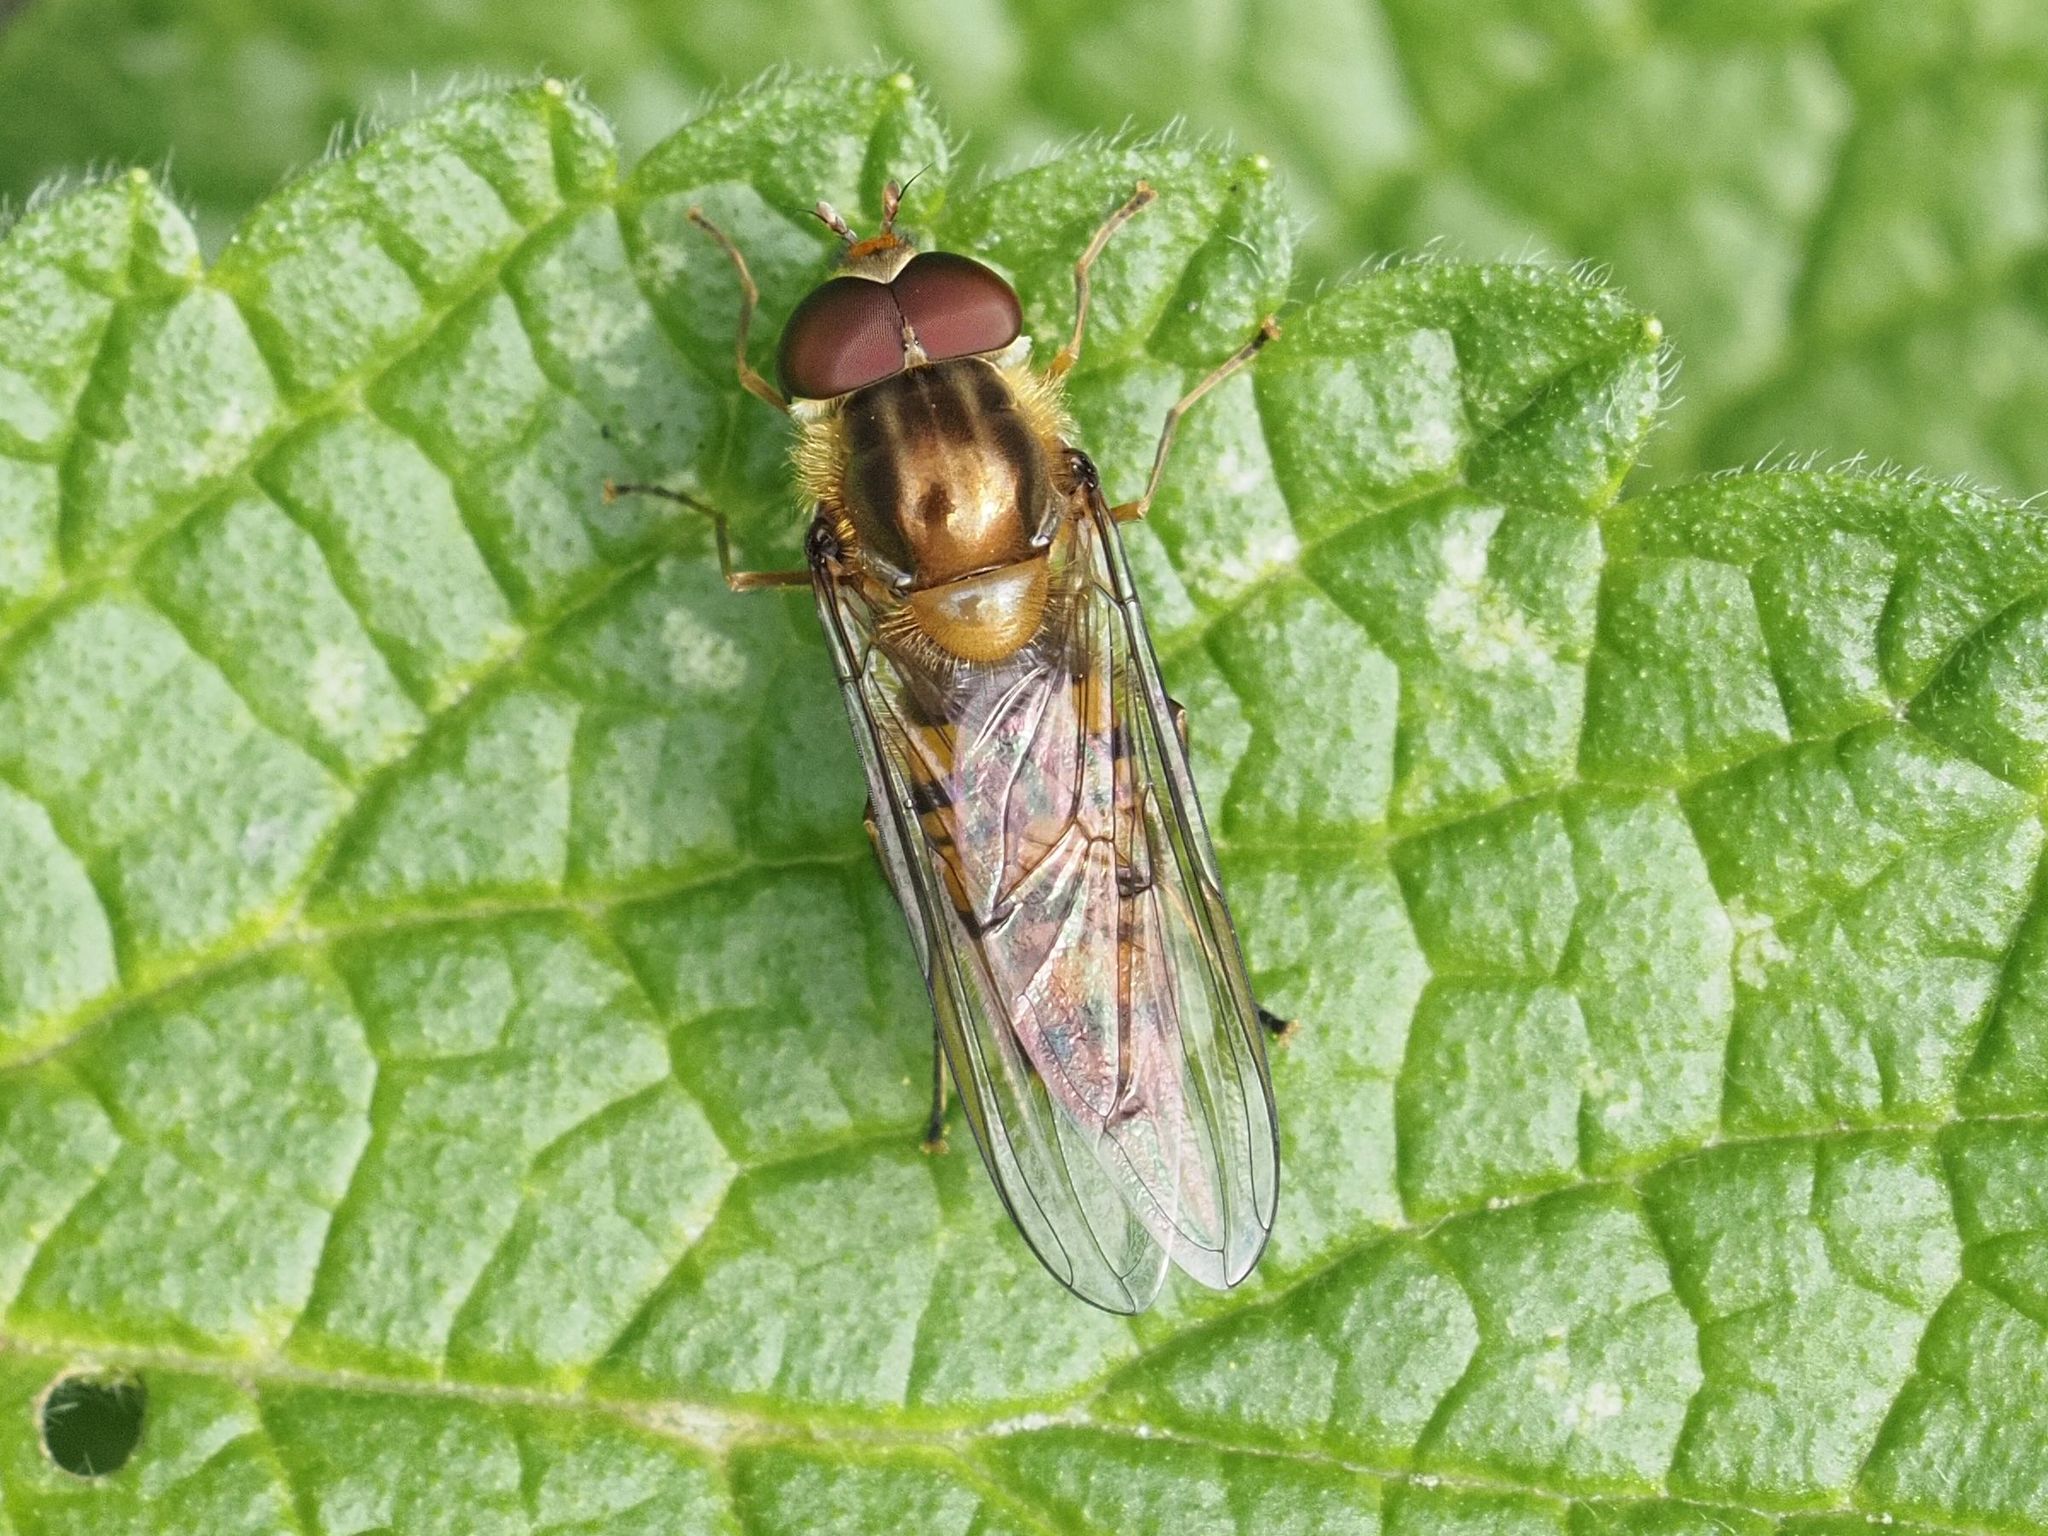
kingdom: Animalia
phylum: Arthropoda
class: Insecta
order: Diptera
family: Syrphidae
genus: Episyrphus
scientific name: Episyrphus balteatus
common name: Marmalade hoverfly
